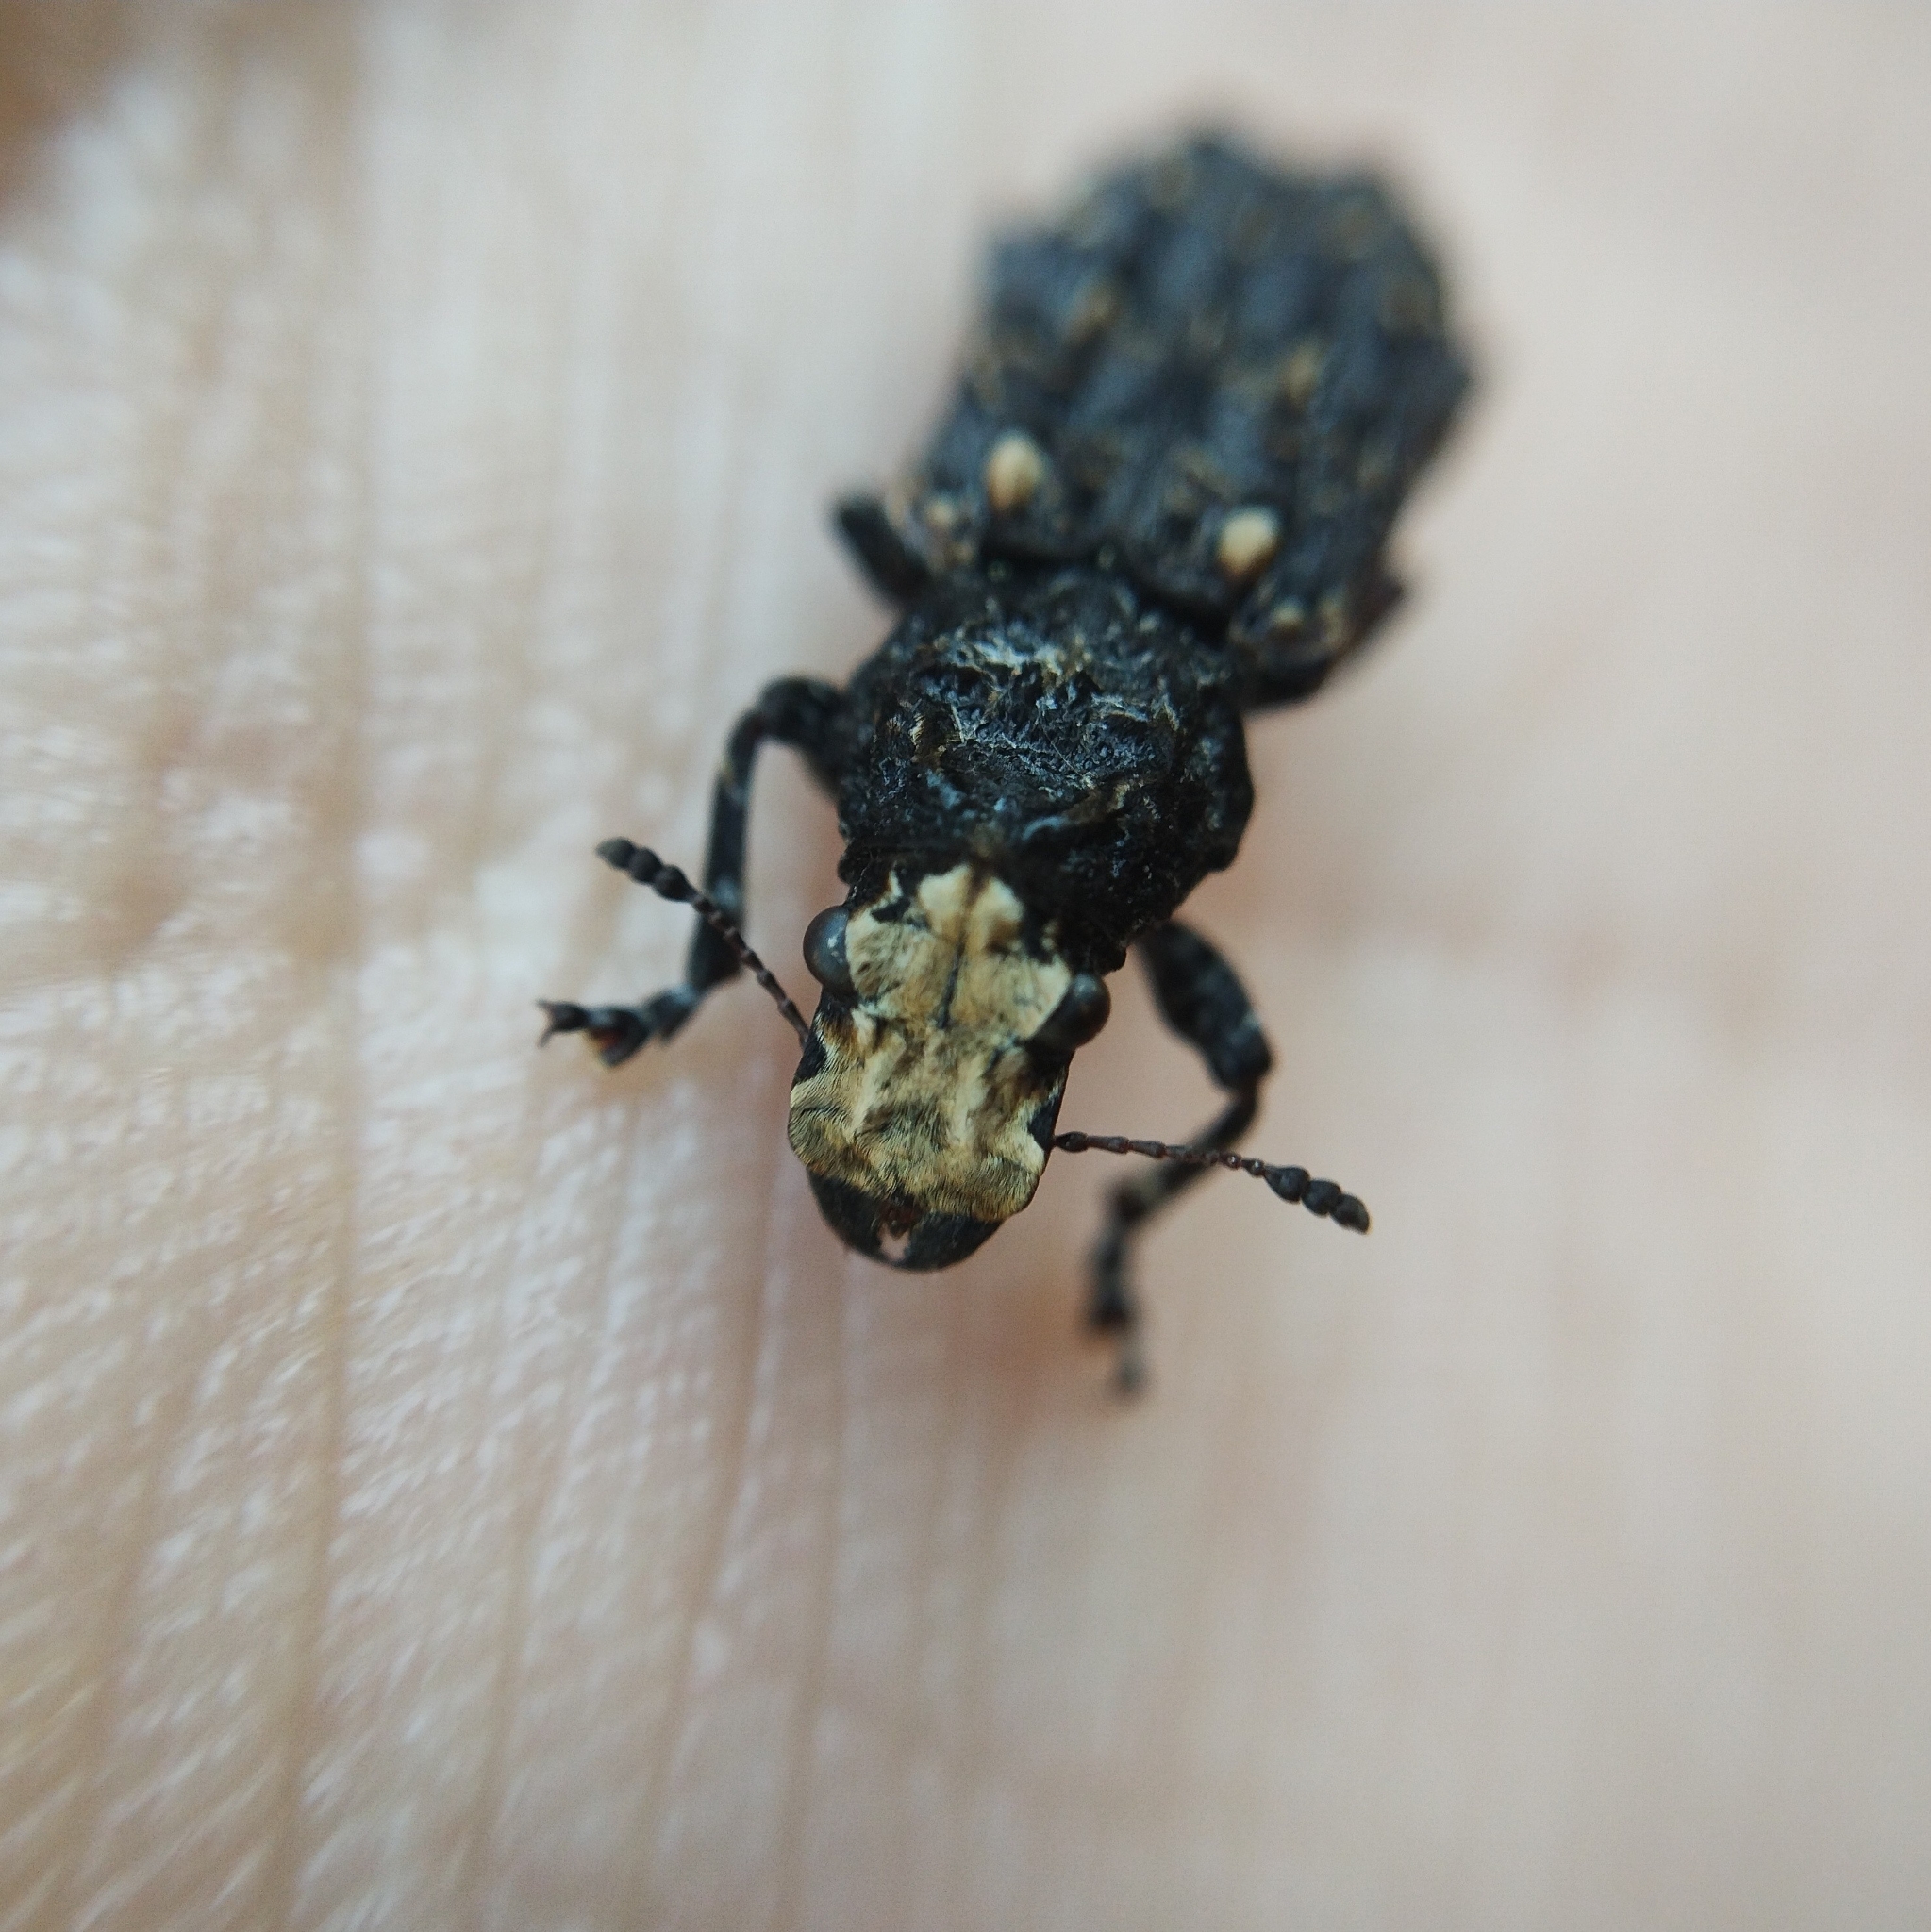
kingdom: Animalia
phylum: Arthropoda
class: Insecta
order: Coleoptera
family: Anthribidae
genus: Platyrhinus
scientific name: Platyrhinus resinosus
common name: Cramp-ball fungus weevil
